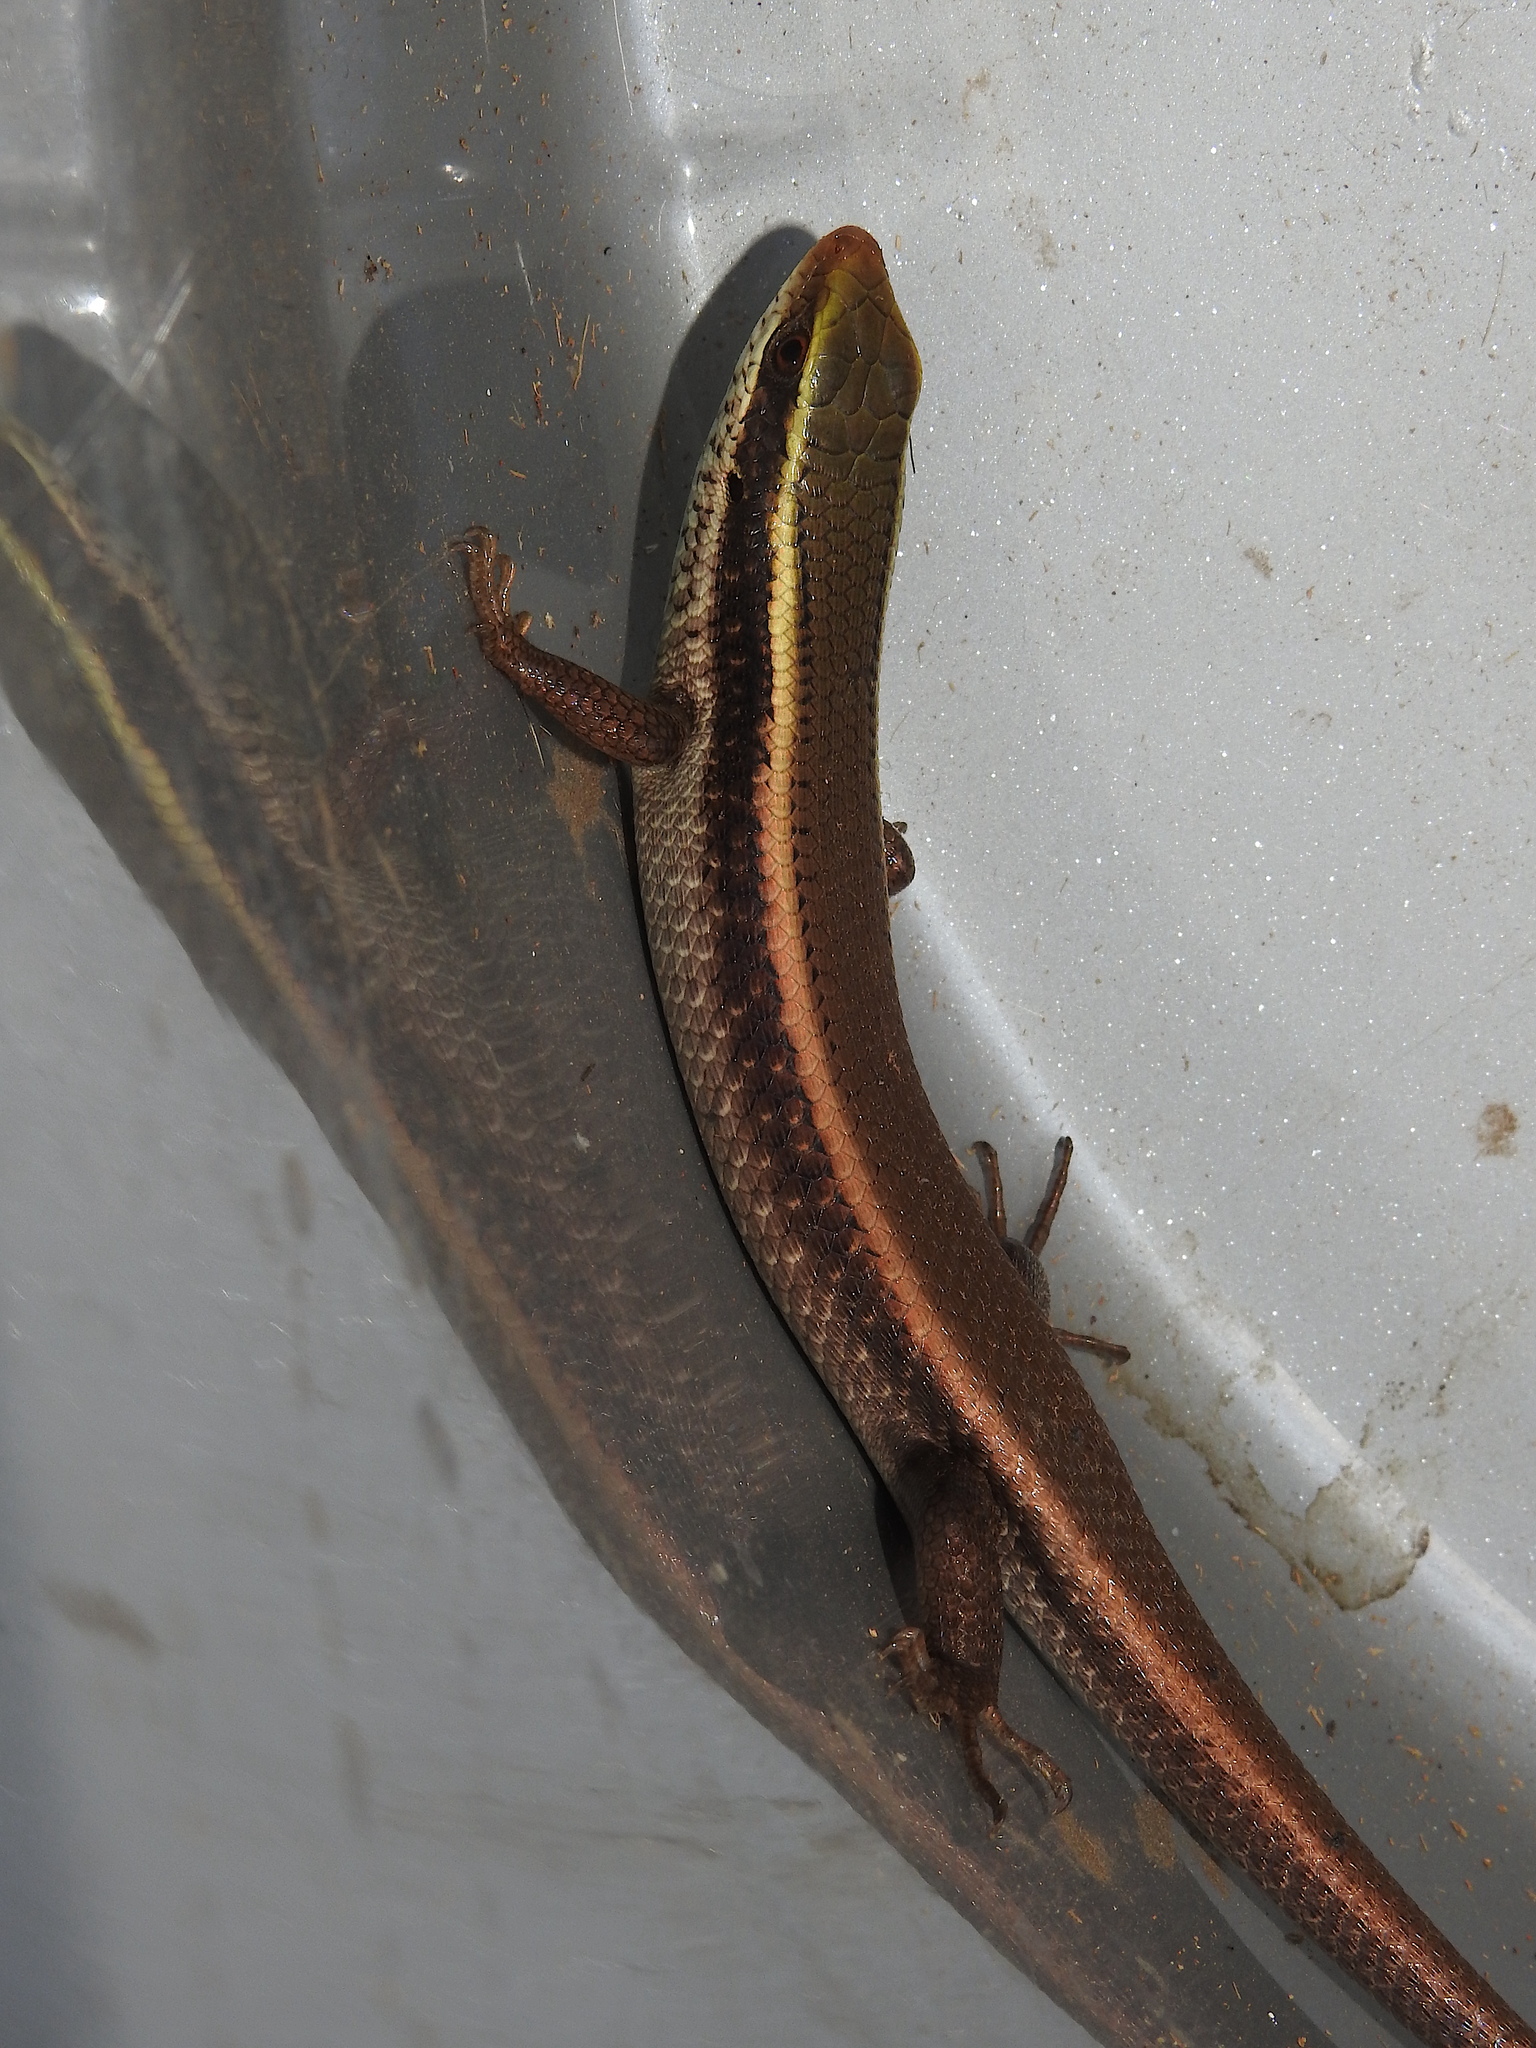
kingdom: Animalia
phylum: Chordata
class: Squamata
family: Scincidae
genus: Eutropis
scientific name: Eutropis carinata
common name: Keeled indian mabuya
